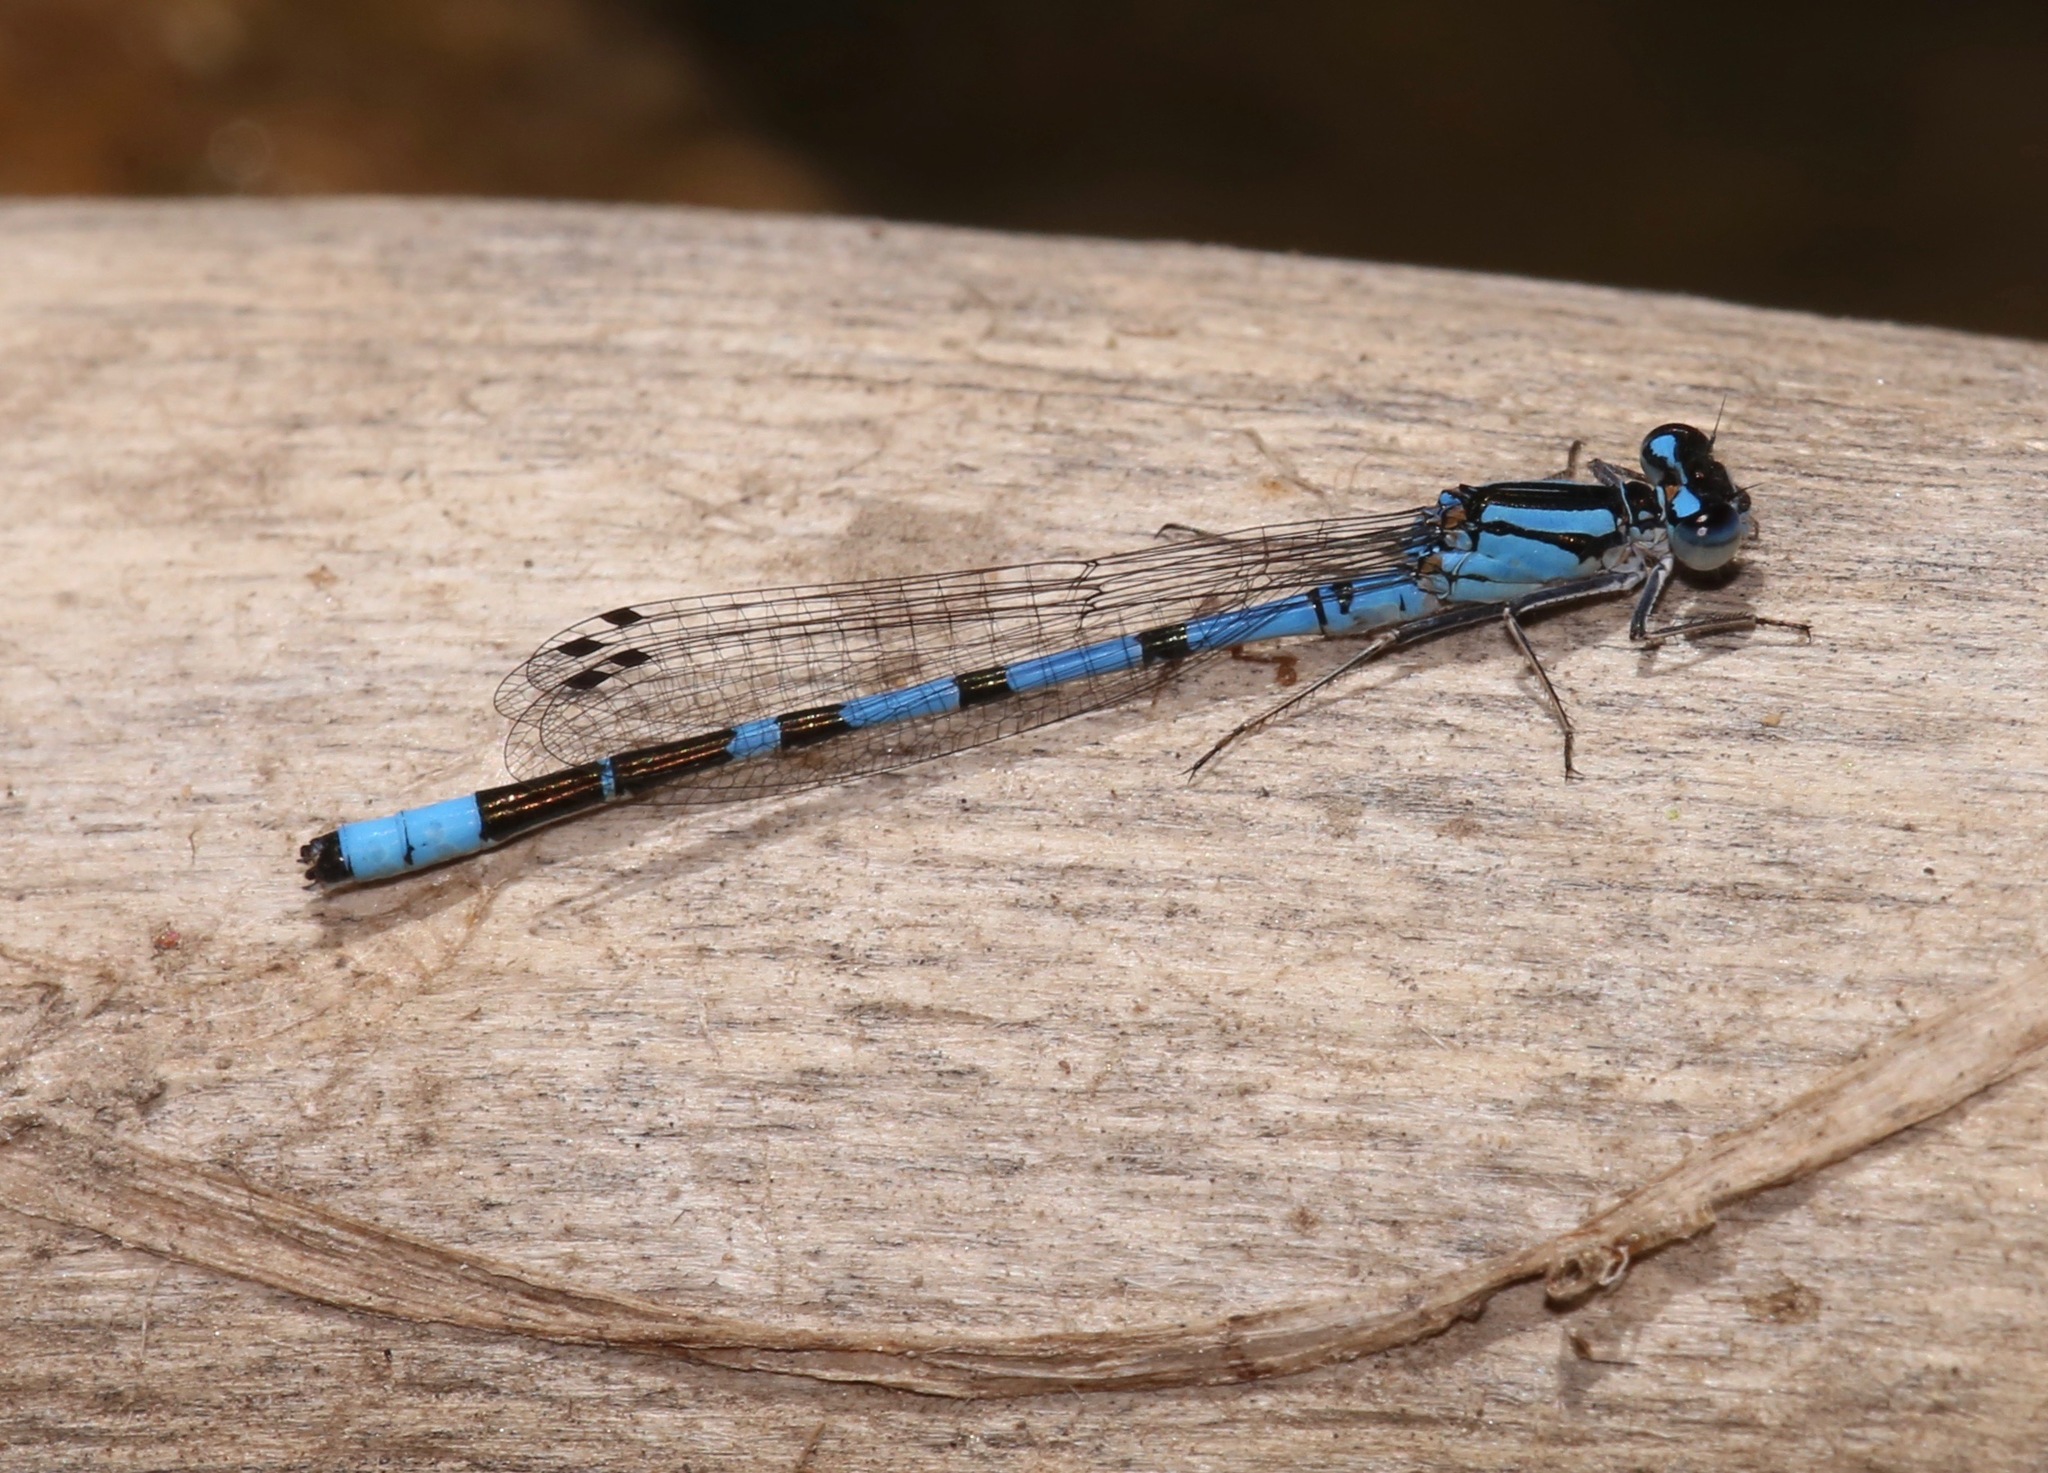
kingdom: Animalia
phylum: Arthropoda
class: Insecta
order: Odonata
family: Coenagrionidae
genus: Enallagma
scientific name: Enallagma boreale
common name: Boreal bluet
